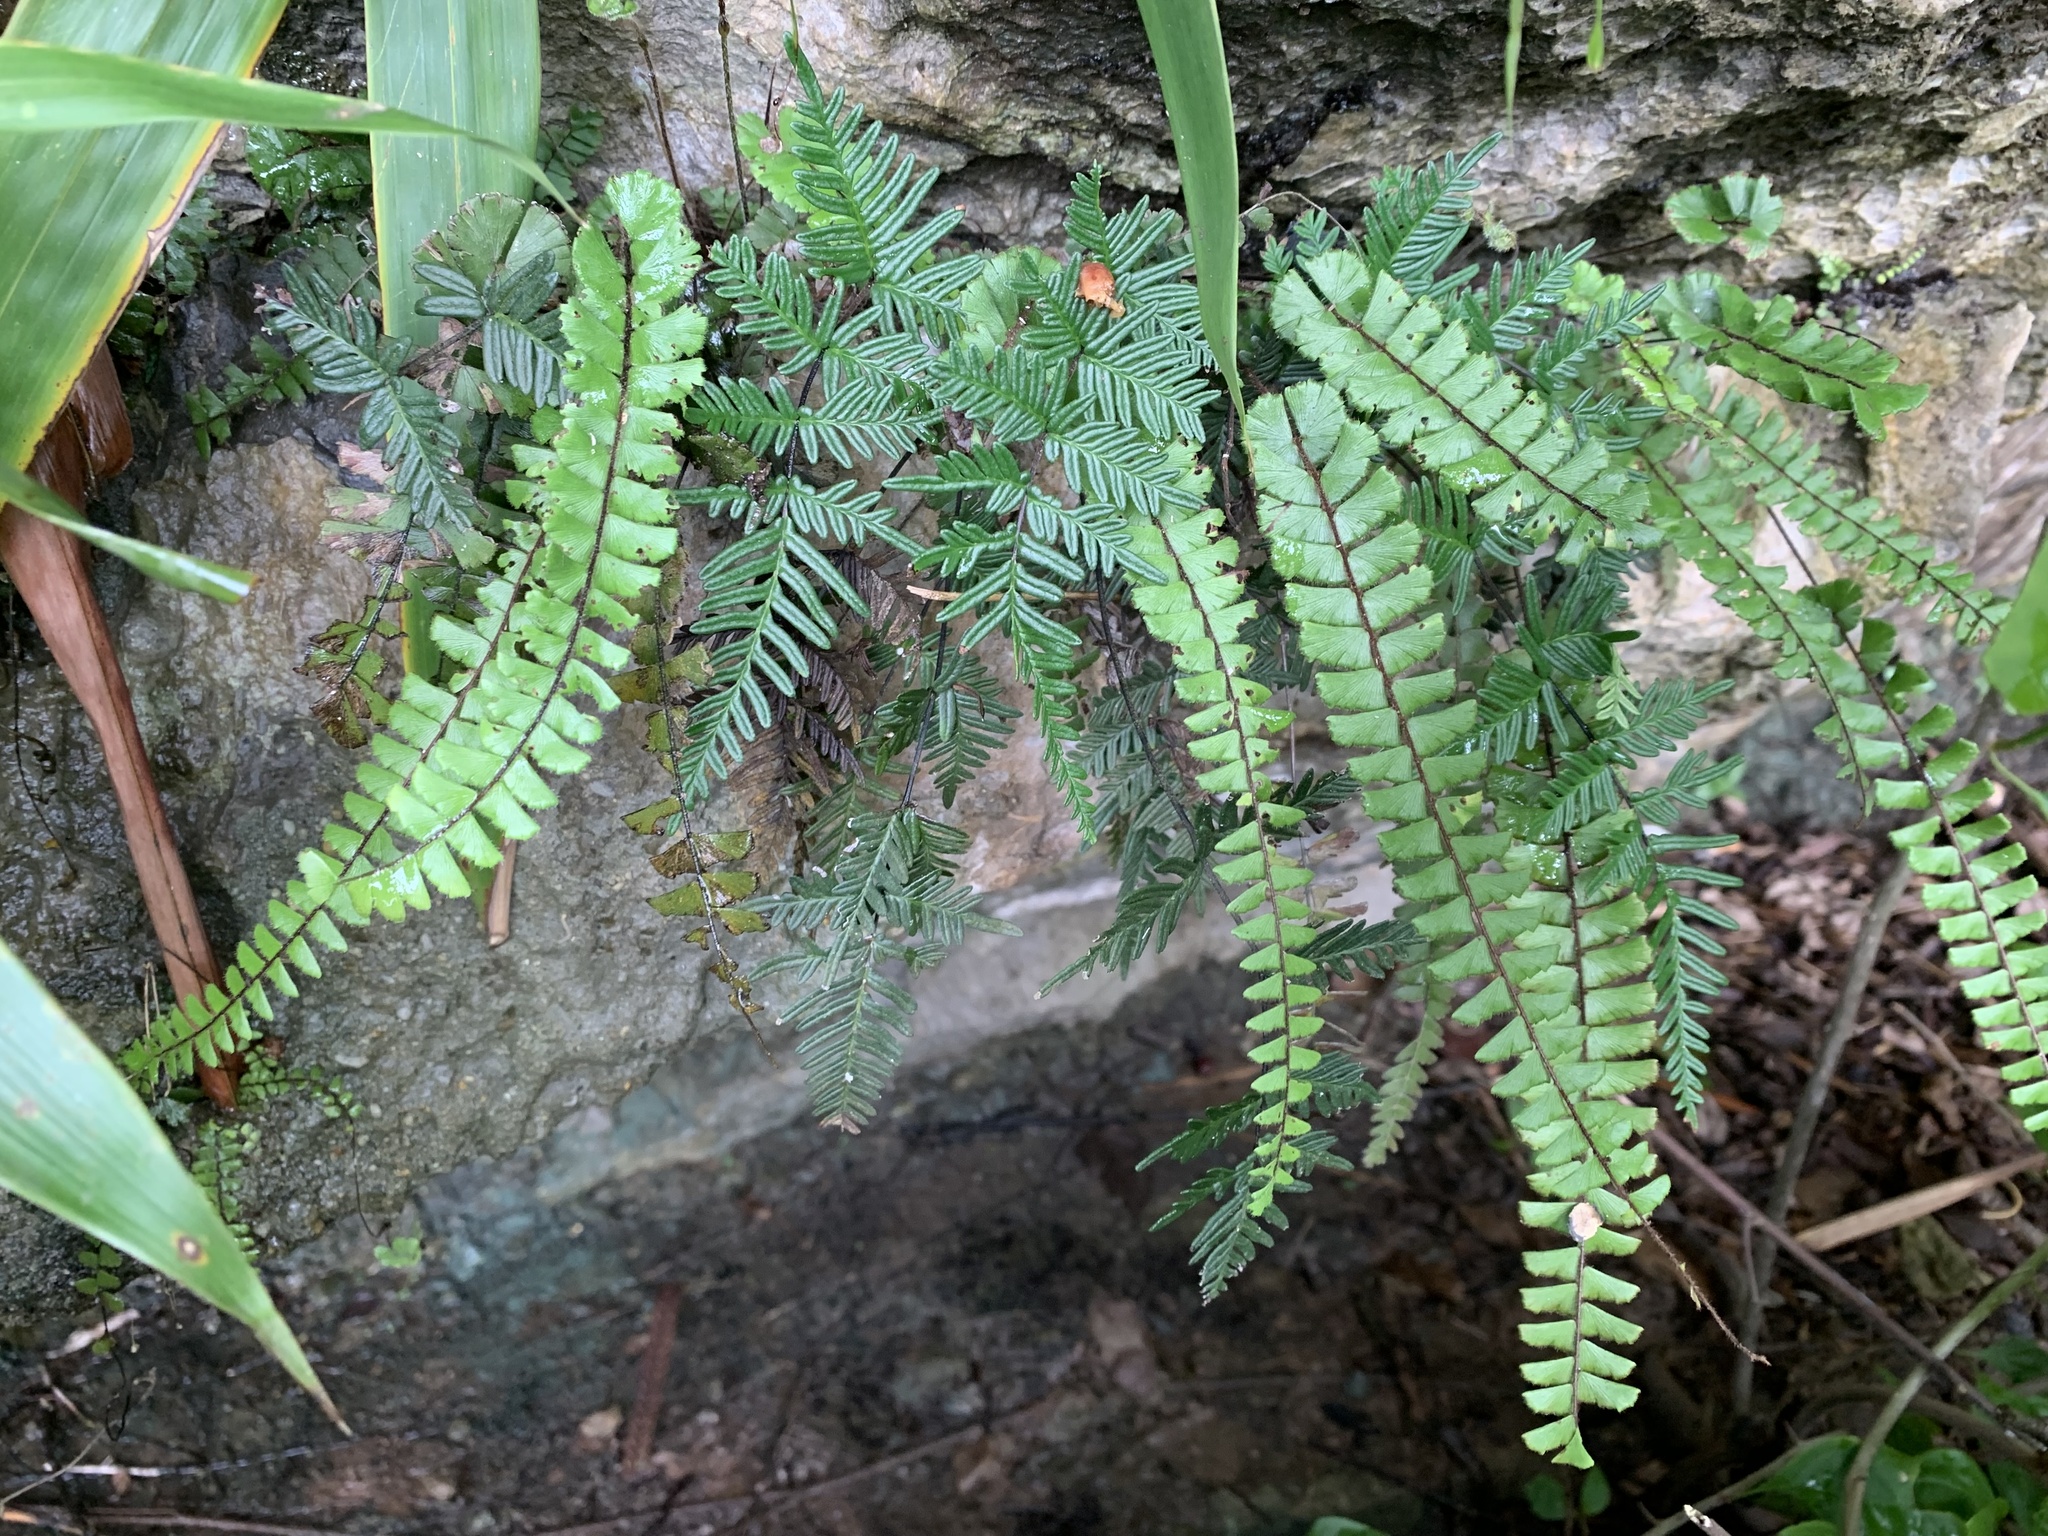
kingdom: Plantae
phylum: Tracheophyta
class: Polypodiopsida
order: Polypodiales
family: Pteridaceae
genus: Adiantum
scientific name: Adiantum caudatum
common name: Tailed maidenhair
